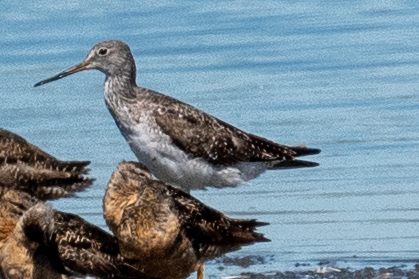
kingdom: Animalia
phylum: Chordata
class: Aves
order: Charadriiformes
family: Scolopacidae
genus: Tringa
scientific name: Tringa melanoleuca
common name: Greater yellowlegs
